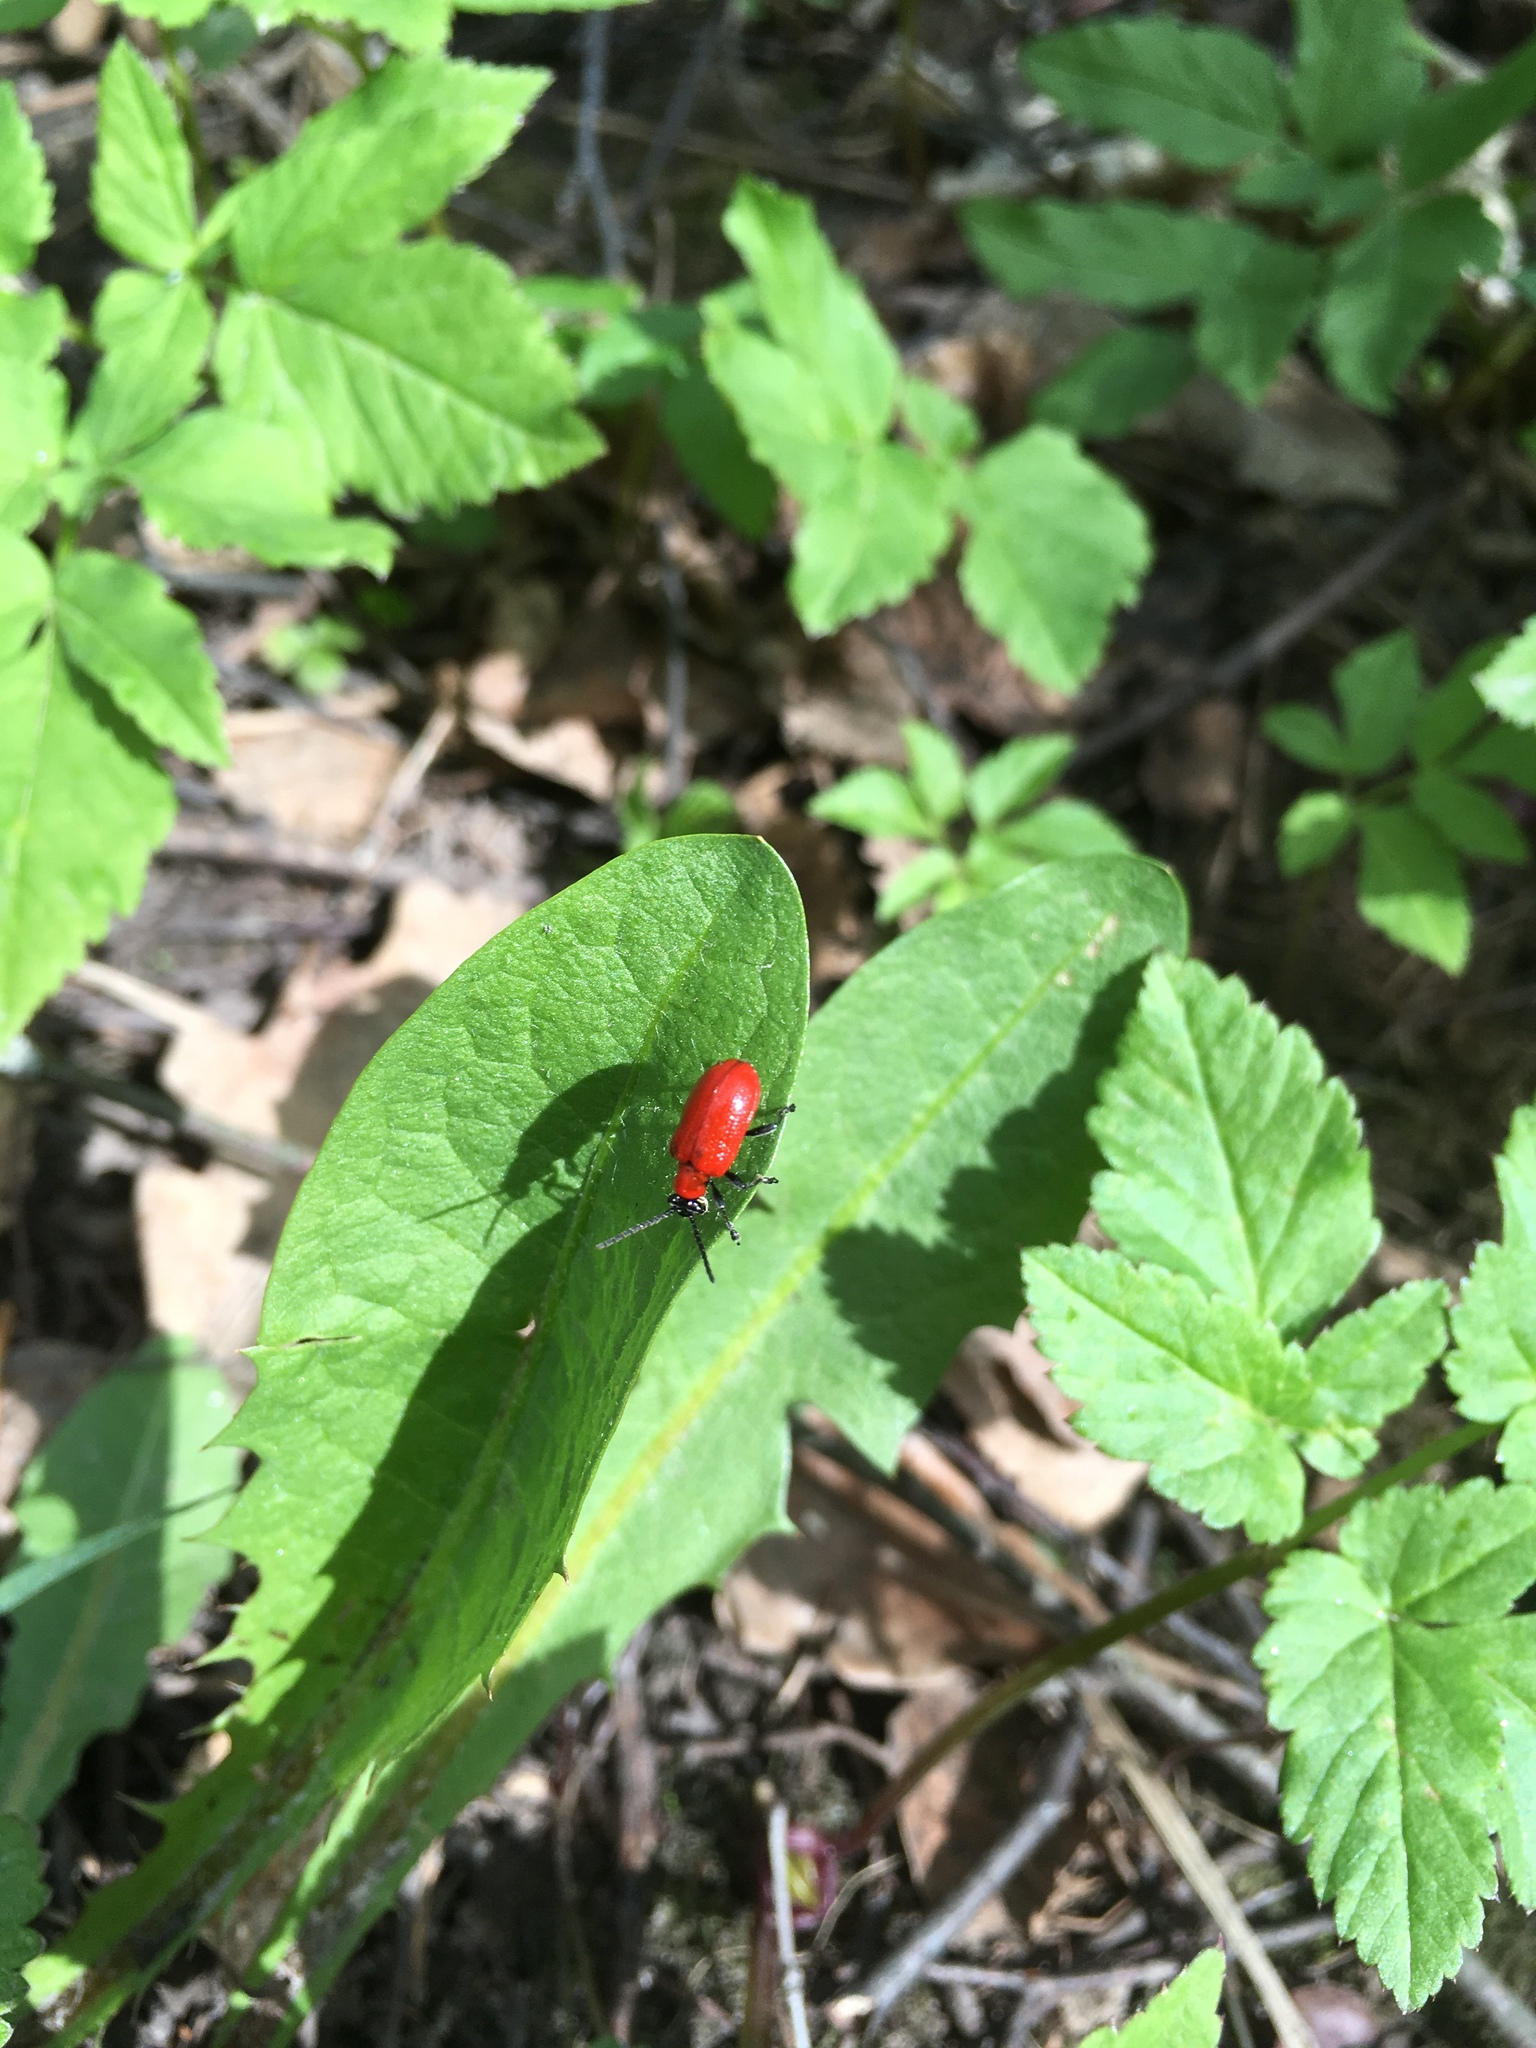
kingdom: Animalia
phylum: Arthropoda
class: Insecta
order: Coleoptera
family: Chrysomelidae
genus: Lilioceris
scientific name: Lilioceris lilii
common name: Lily beetle
